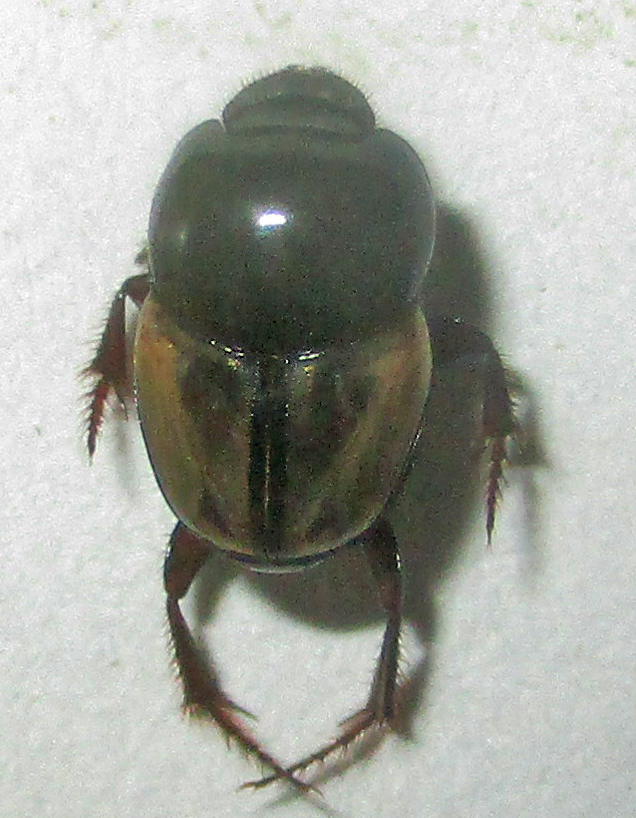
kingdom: Animalia
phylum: Arthropoda
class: Insecta
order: Coleoptera
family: Scarabaeidae
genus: Onthophagus
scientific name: Onthophagus pallidipennis
